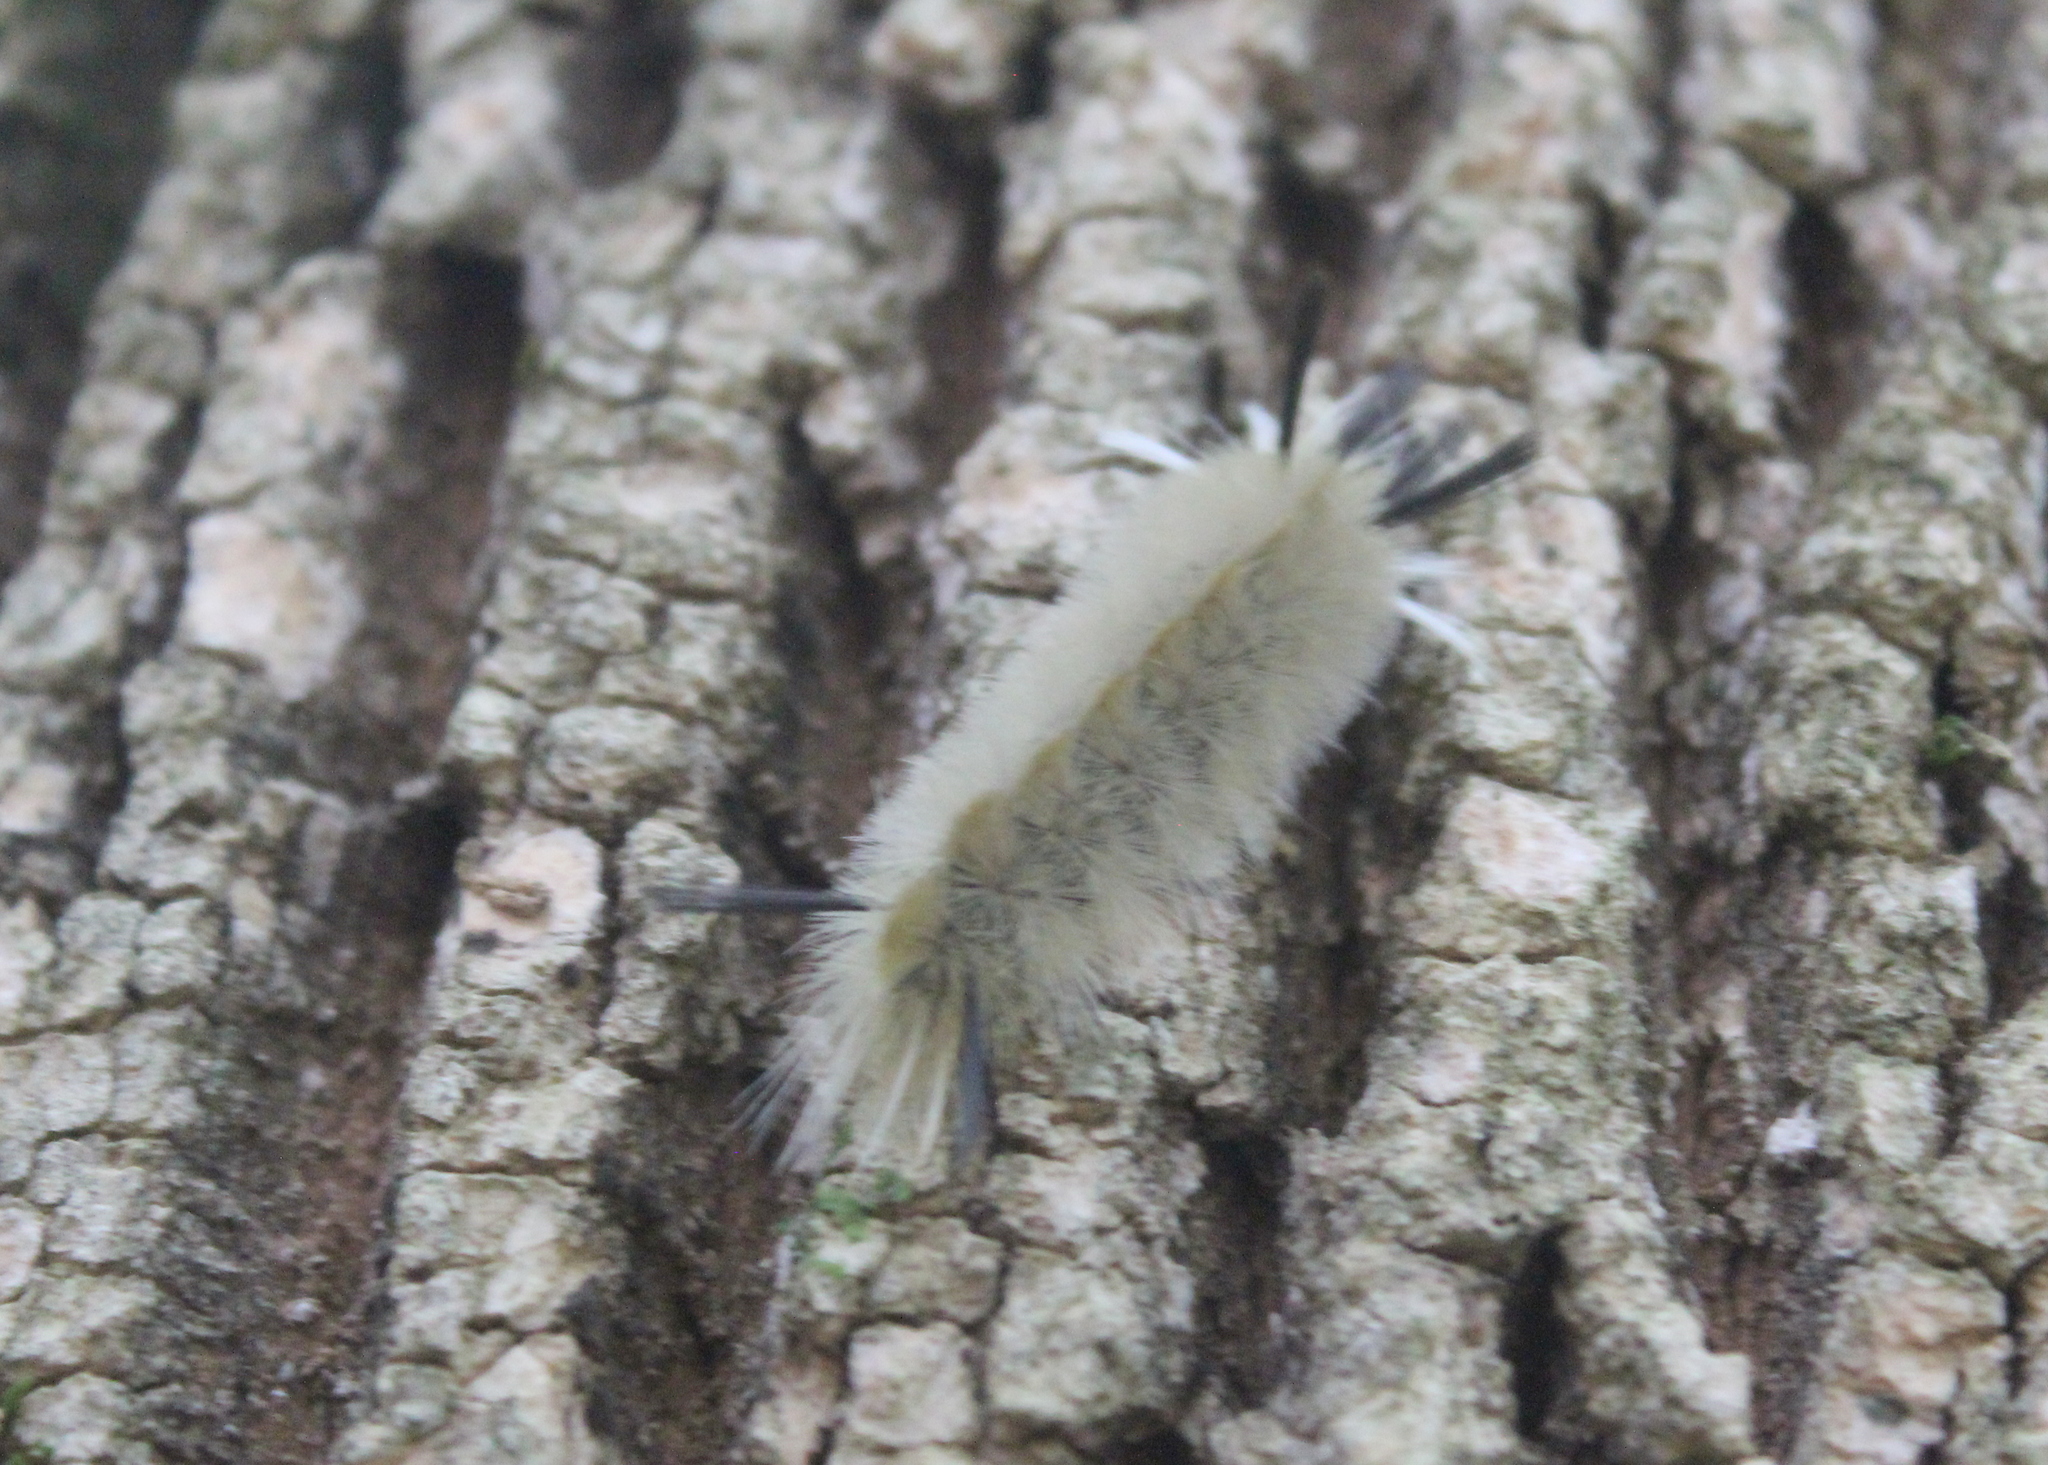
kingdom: Animalia
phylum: Arthropoda
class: Insecta
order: Lepidoptera
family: Erebidae
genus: Halysidota
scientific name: Halysidota tessellaris
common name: Banded tussock moth
